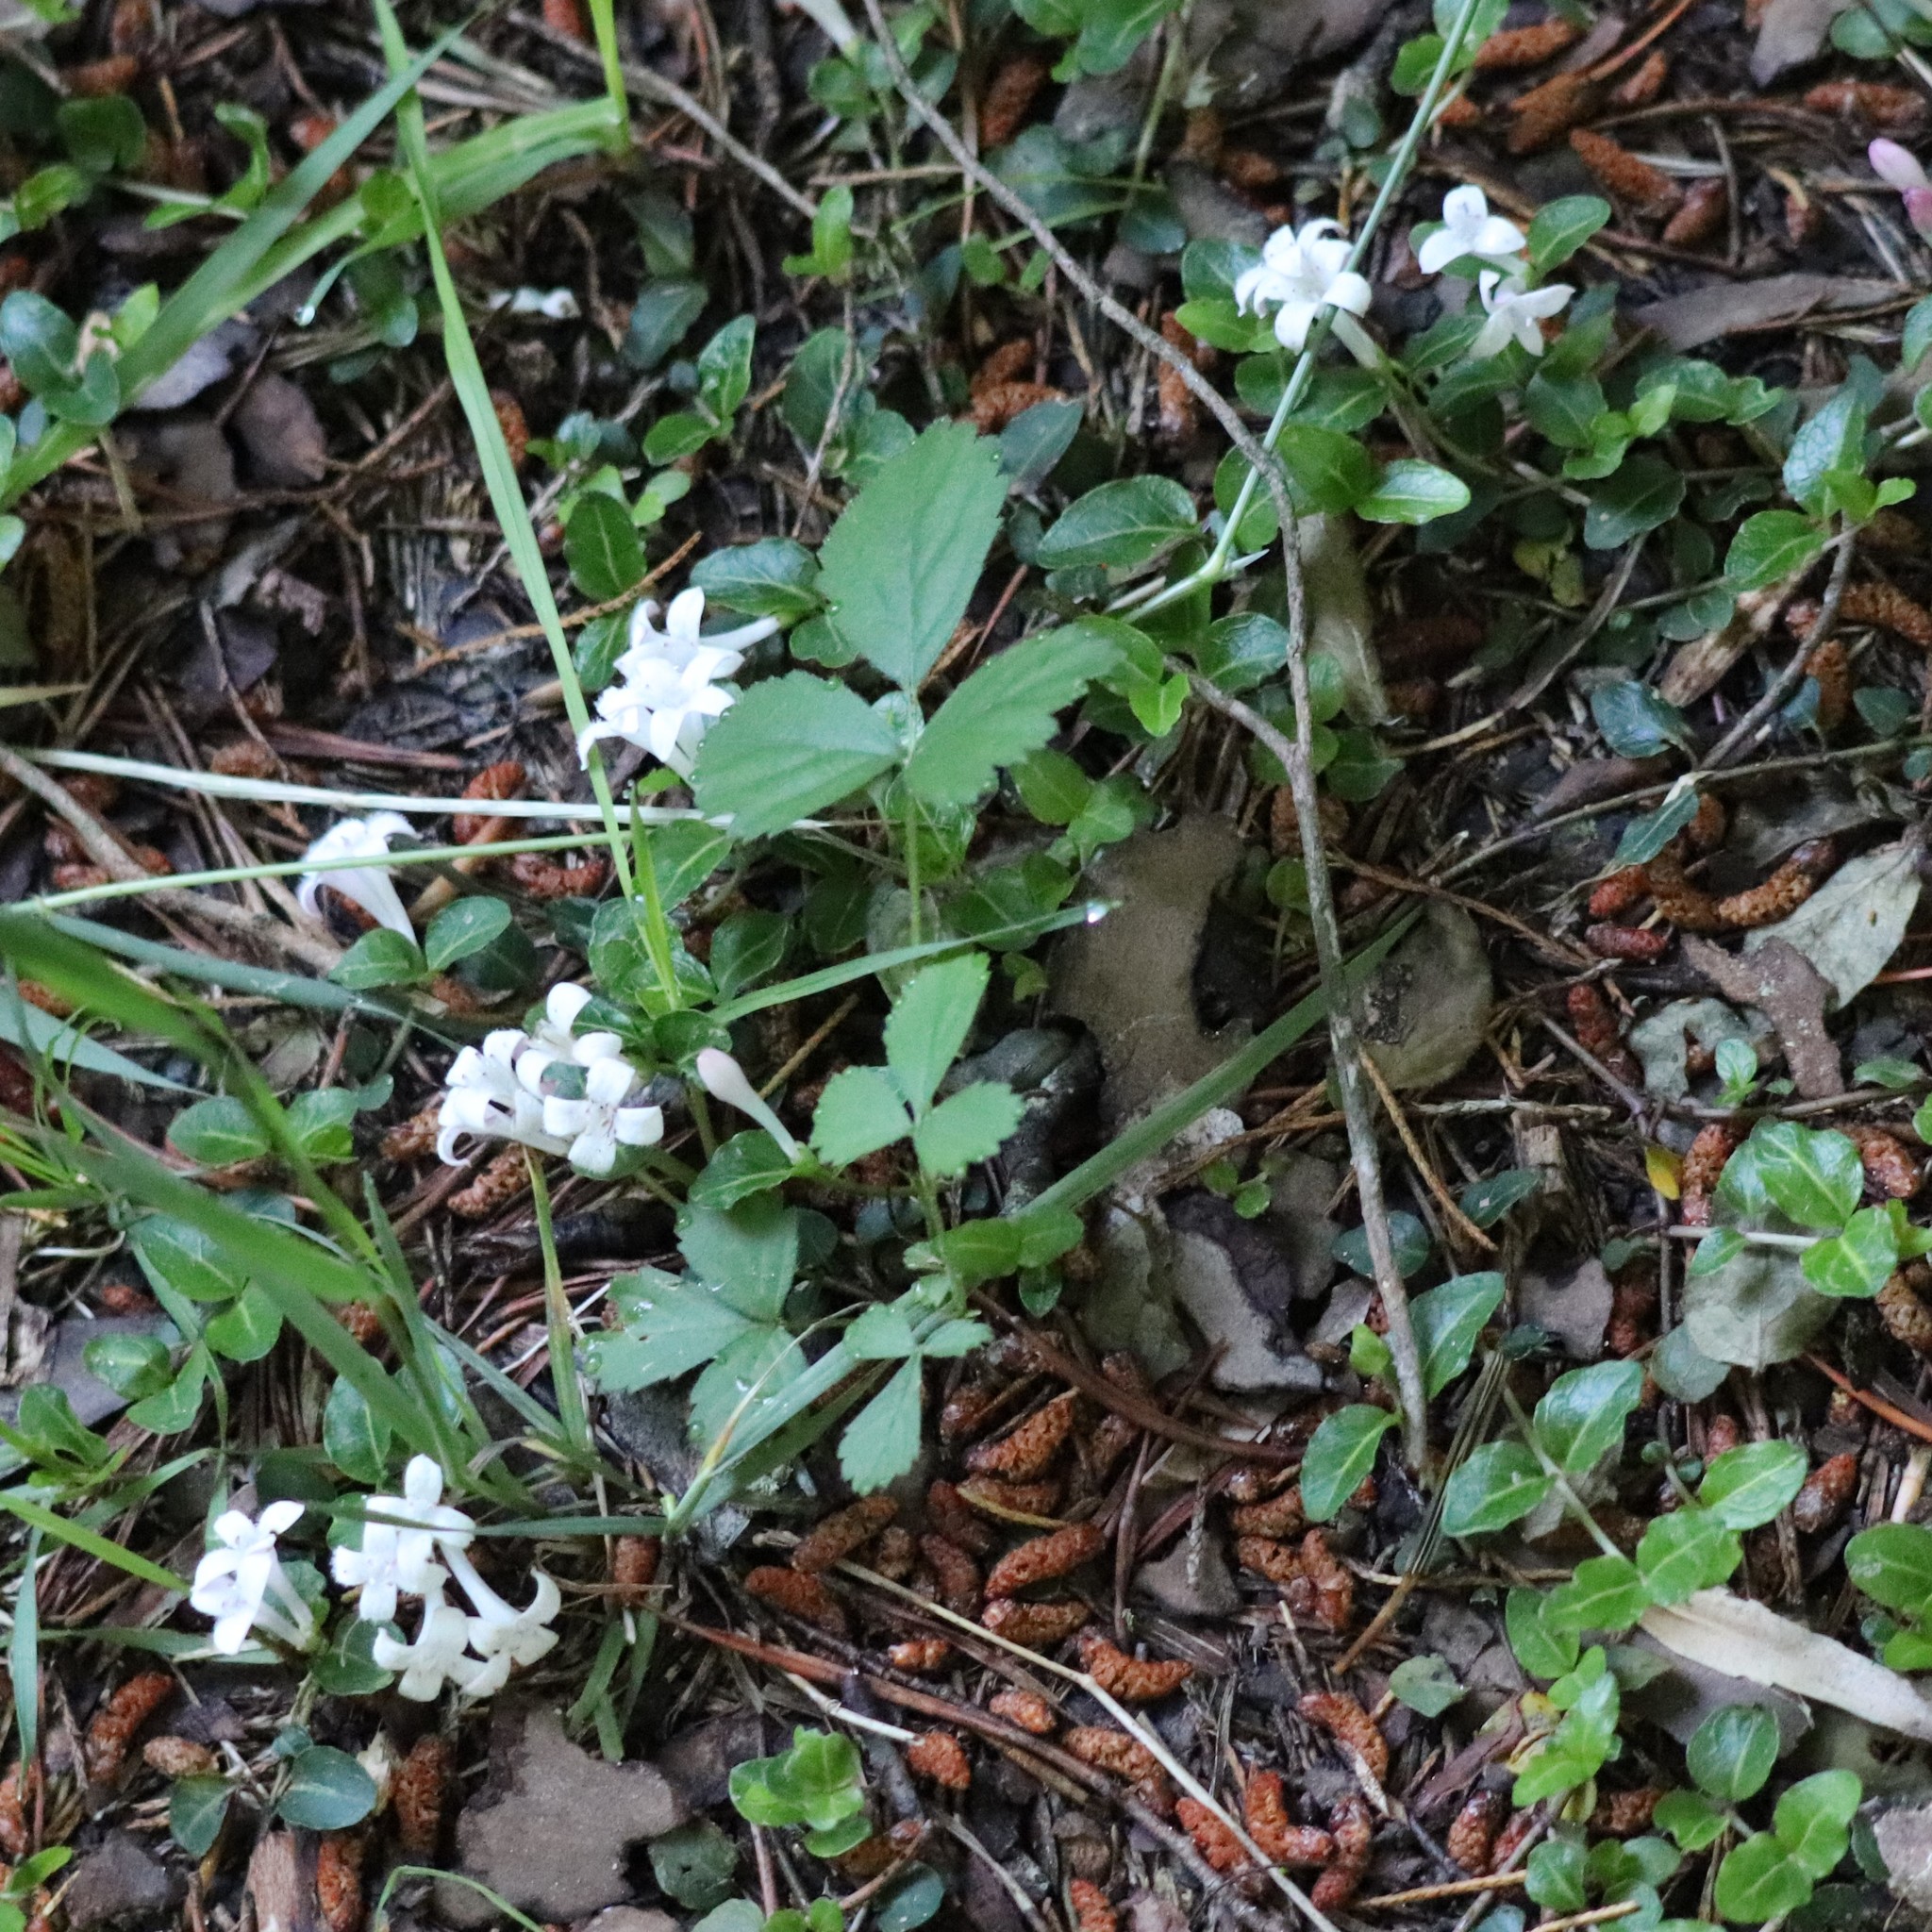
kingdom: Plantae
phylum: Tracheophyta
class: Magnoliopsida
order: Gentianales
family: Rubiaceae
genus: Mitchella
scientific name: Mitchella repens
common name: Partridge-berry
